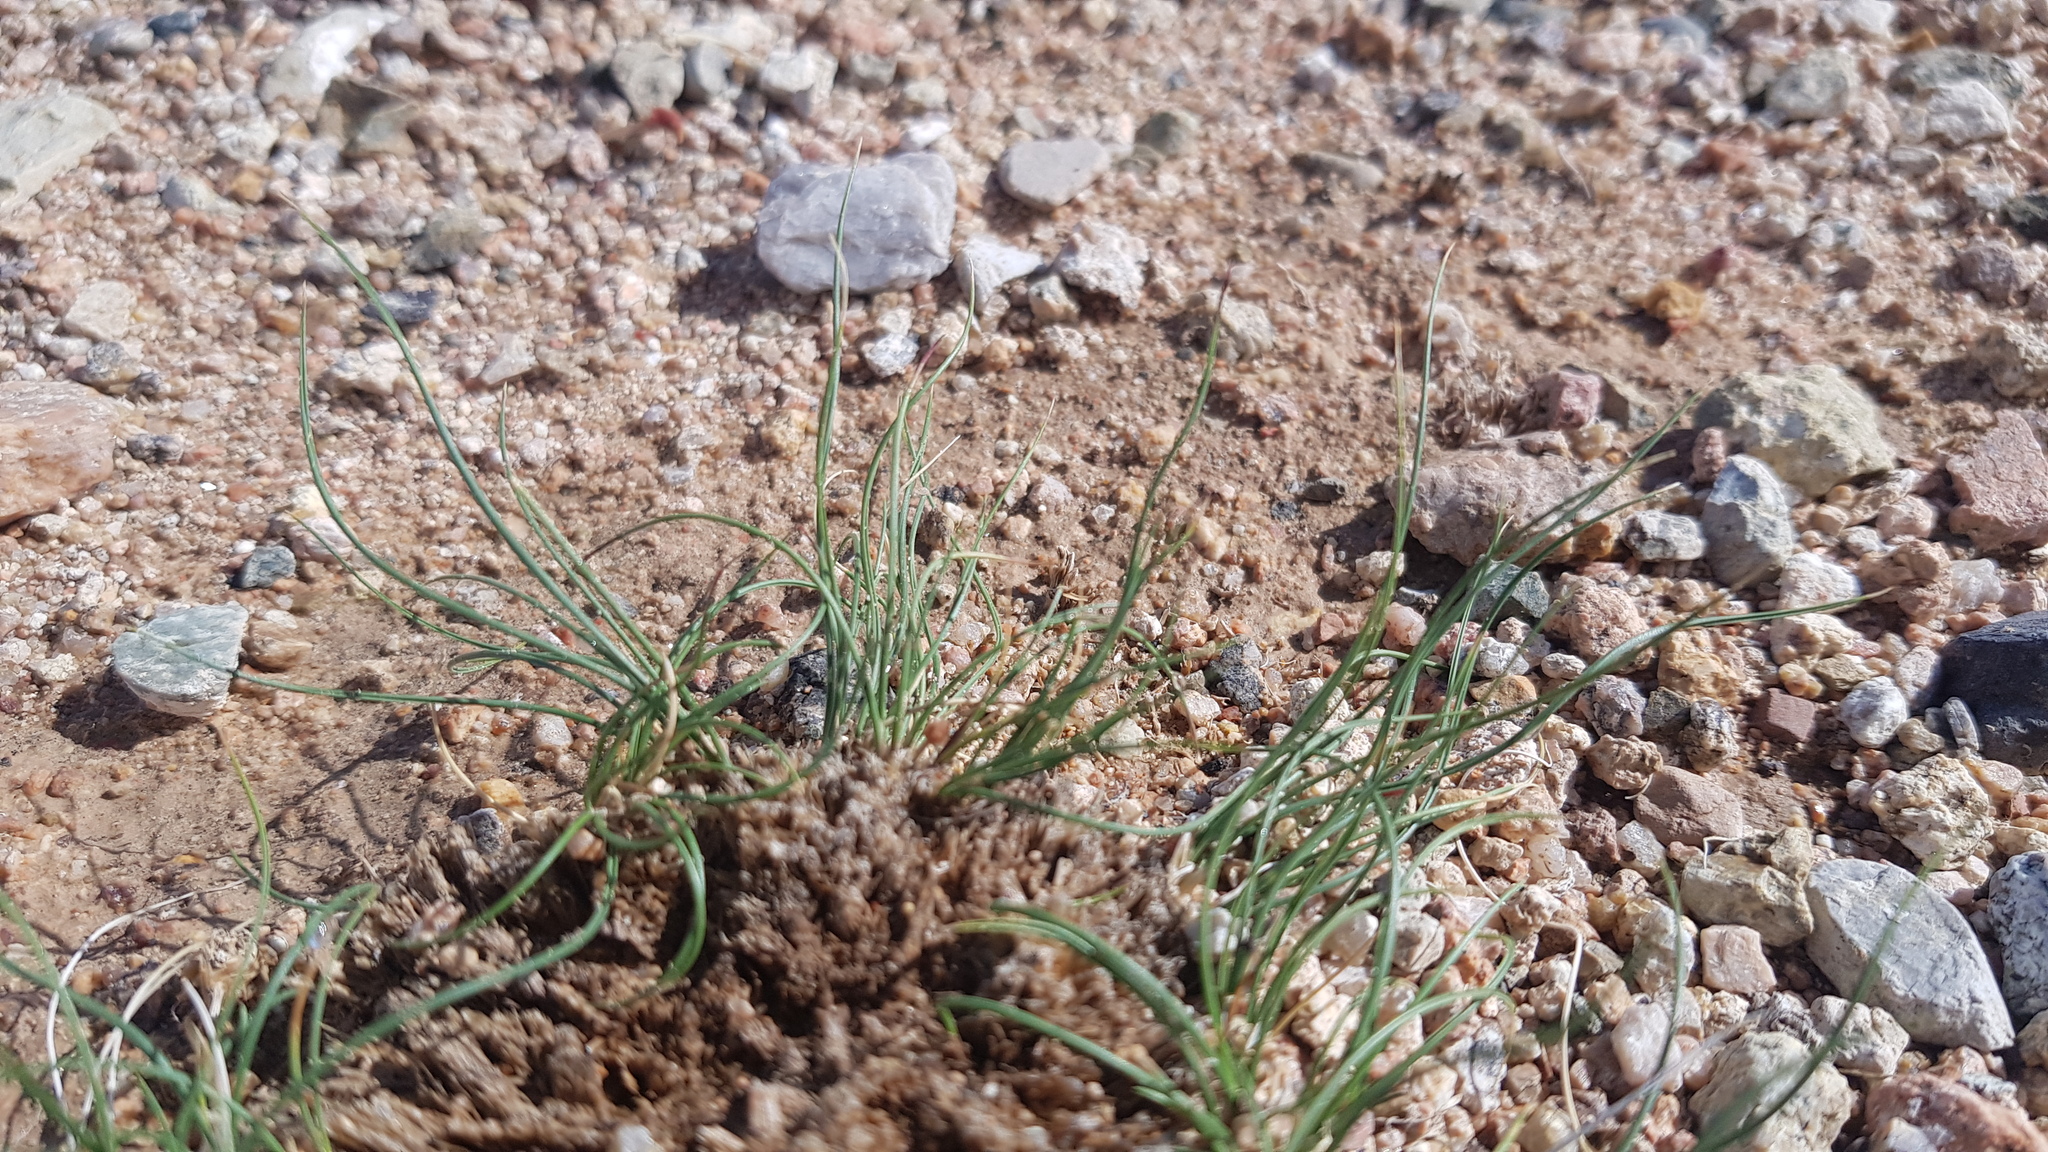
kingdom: Plantae
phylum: Tracheophyta
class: Liliopsida
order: Poales
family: Poaceae
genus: Stipa
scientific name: Stipa tianschanica
